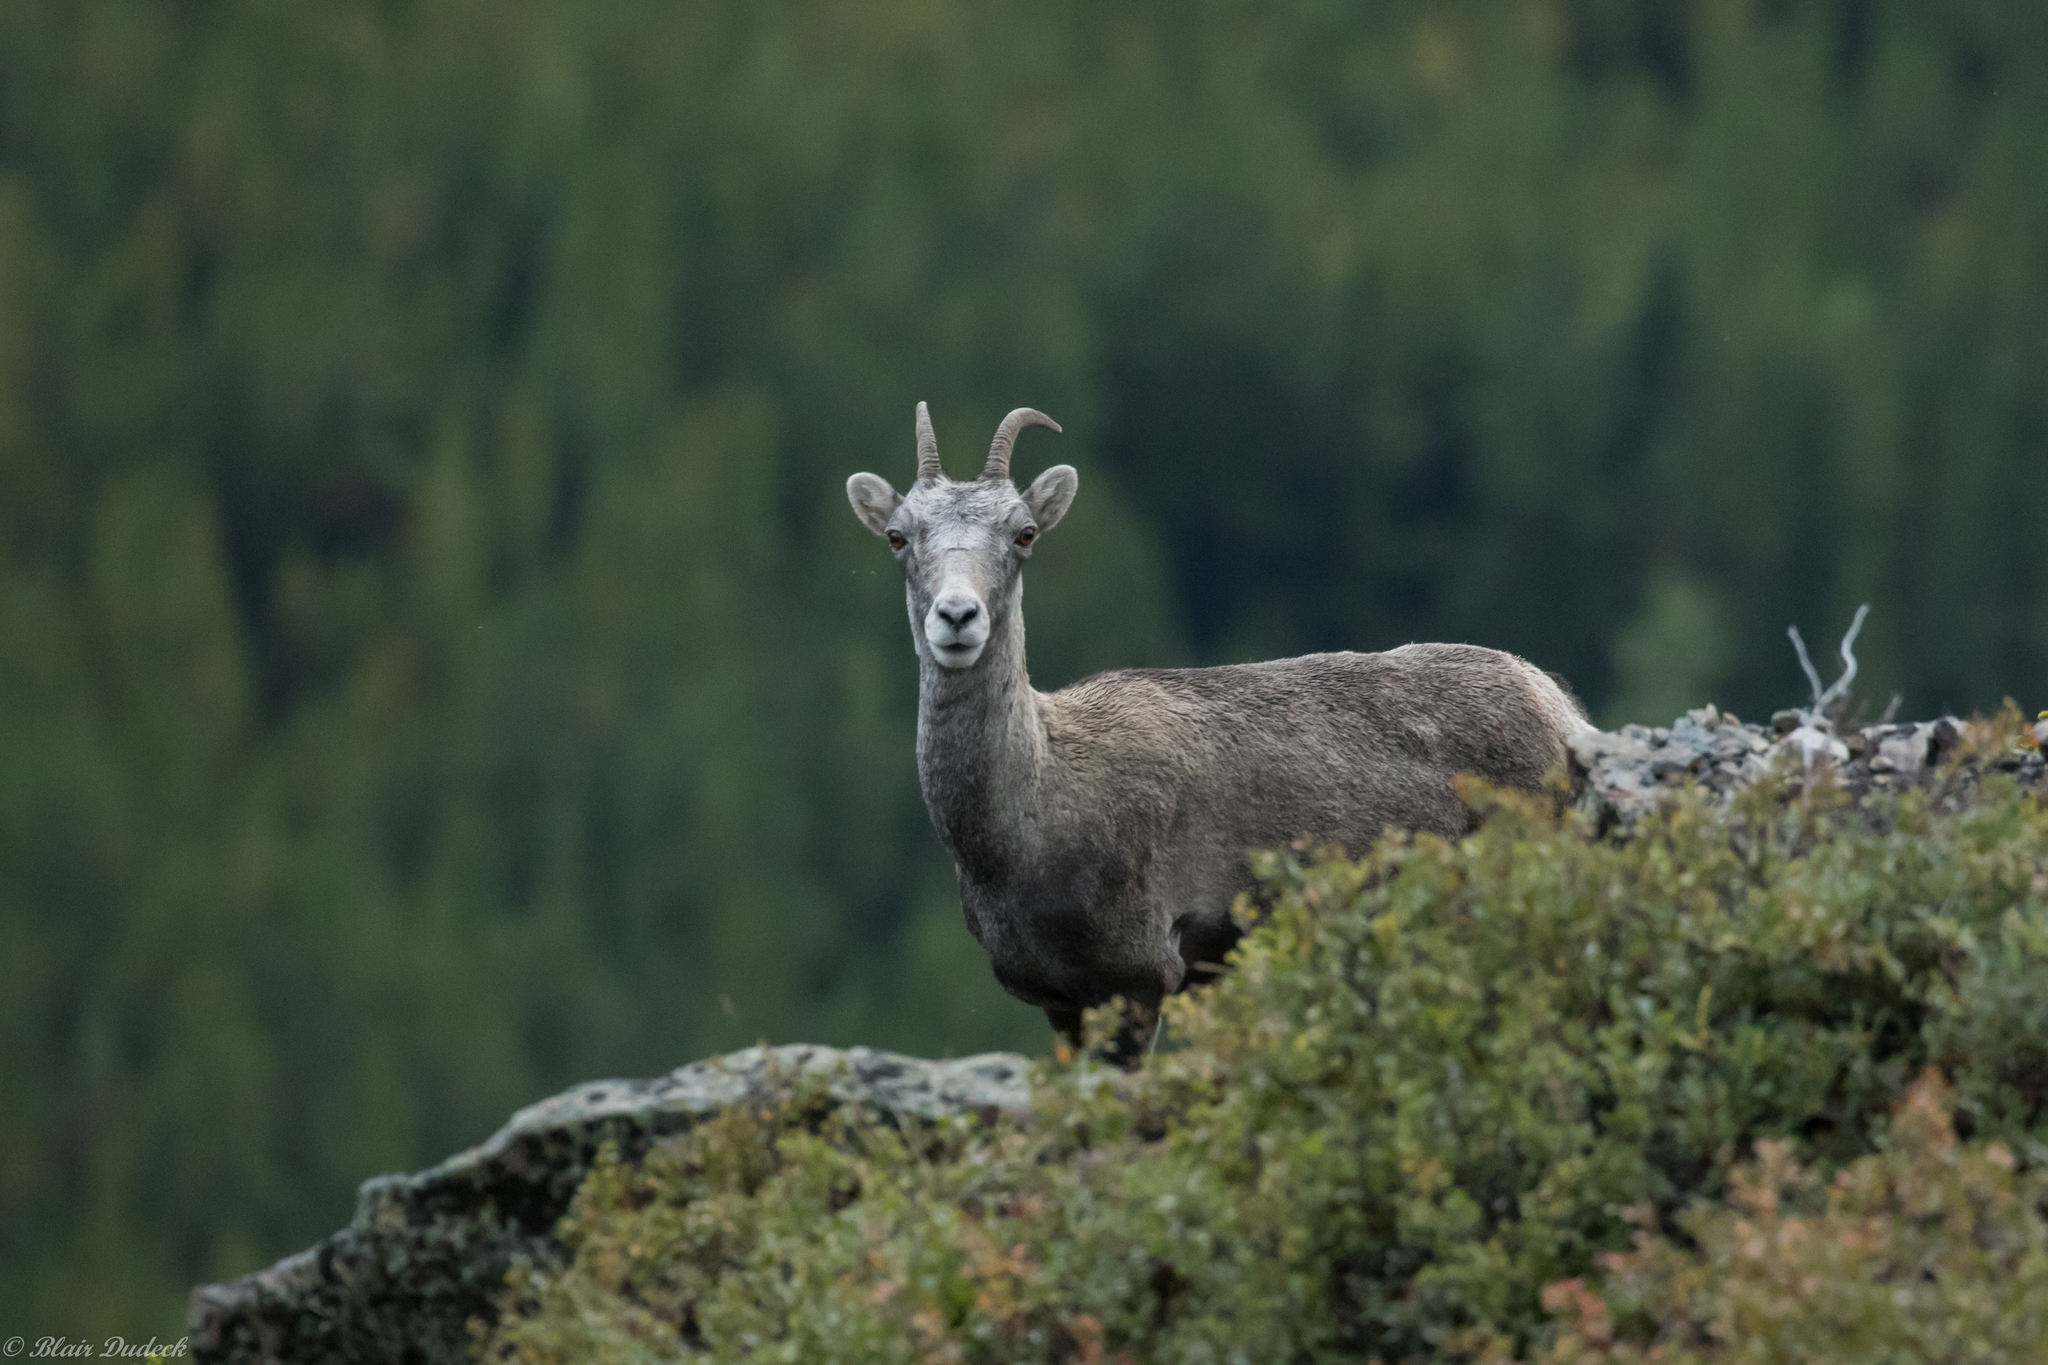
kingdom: Animalia
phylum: Chordata
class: Mammalia
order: Artiodactyla
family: Bovidae
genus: Ovis
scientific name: Ovis dalli
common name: Dall's sheep
